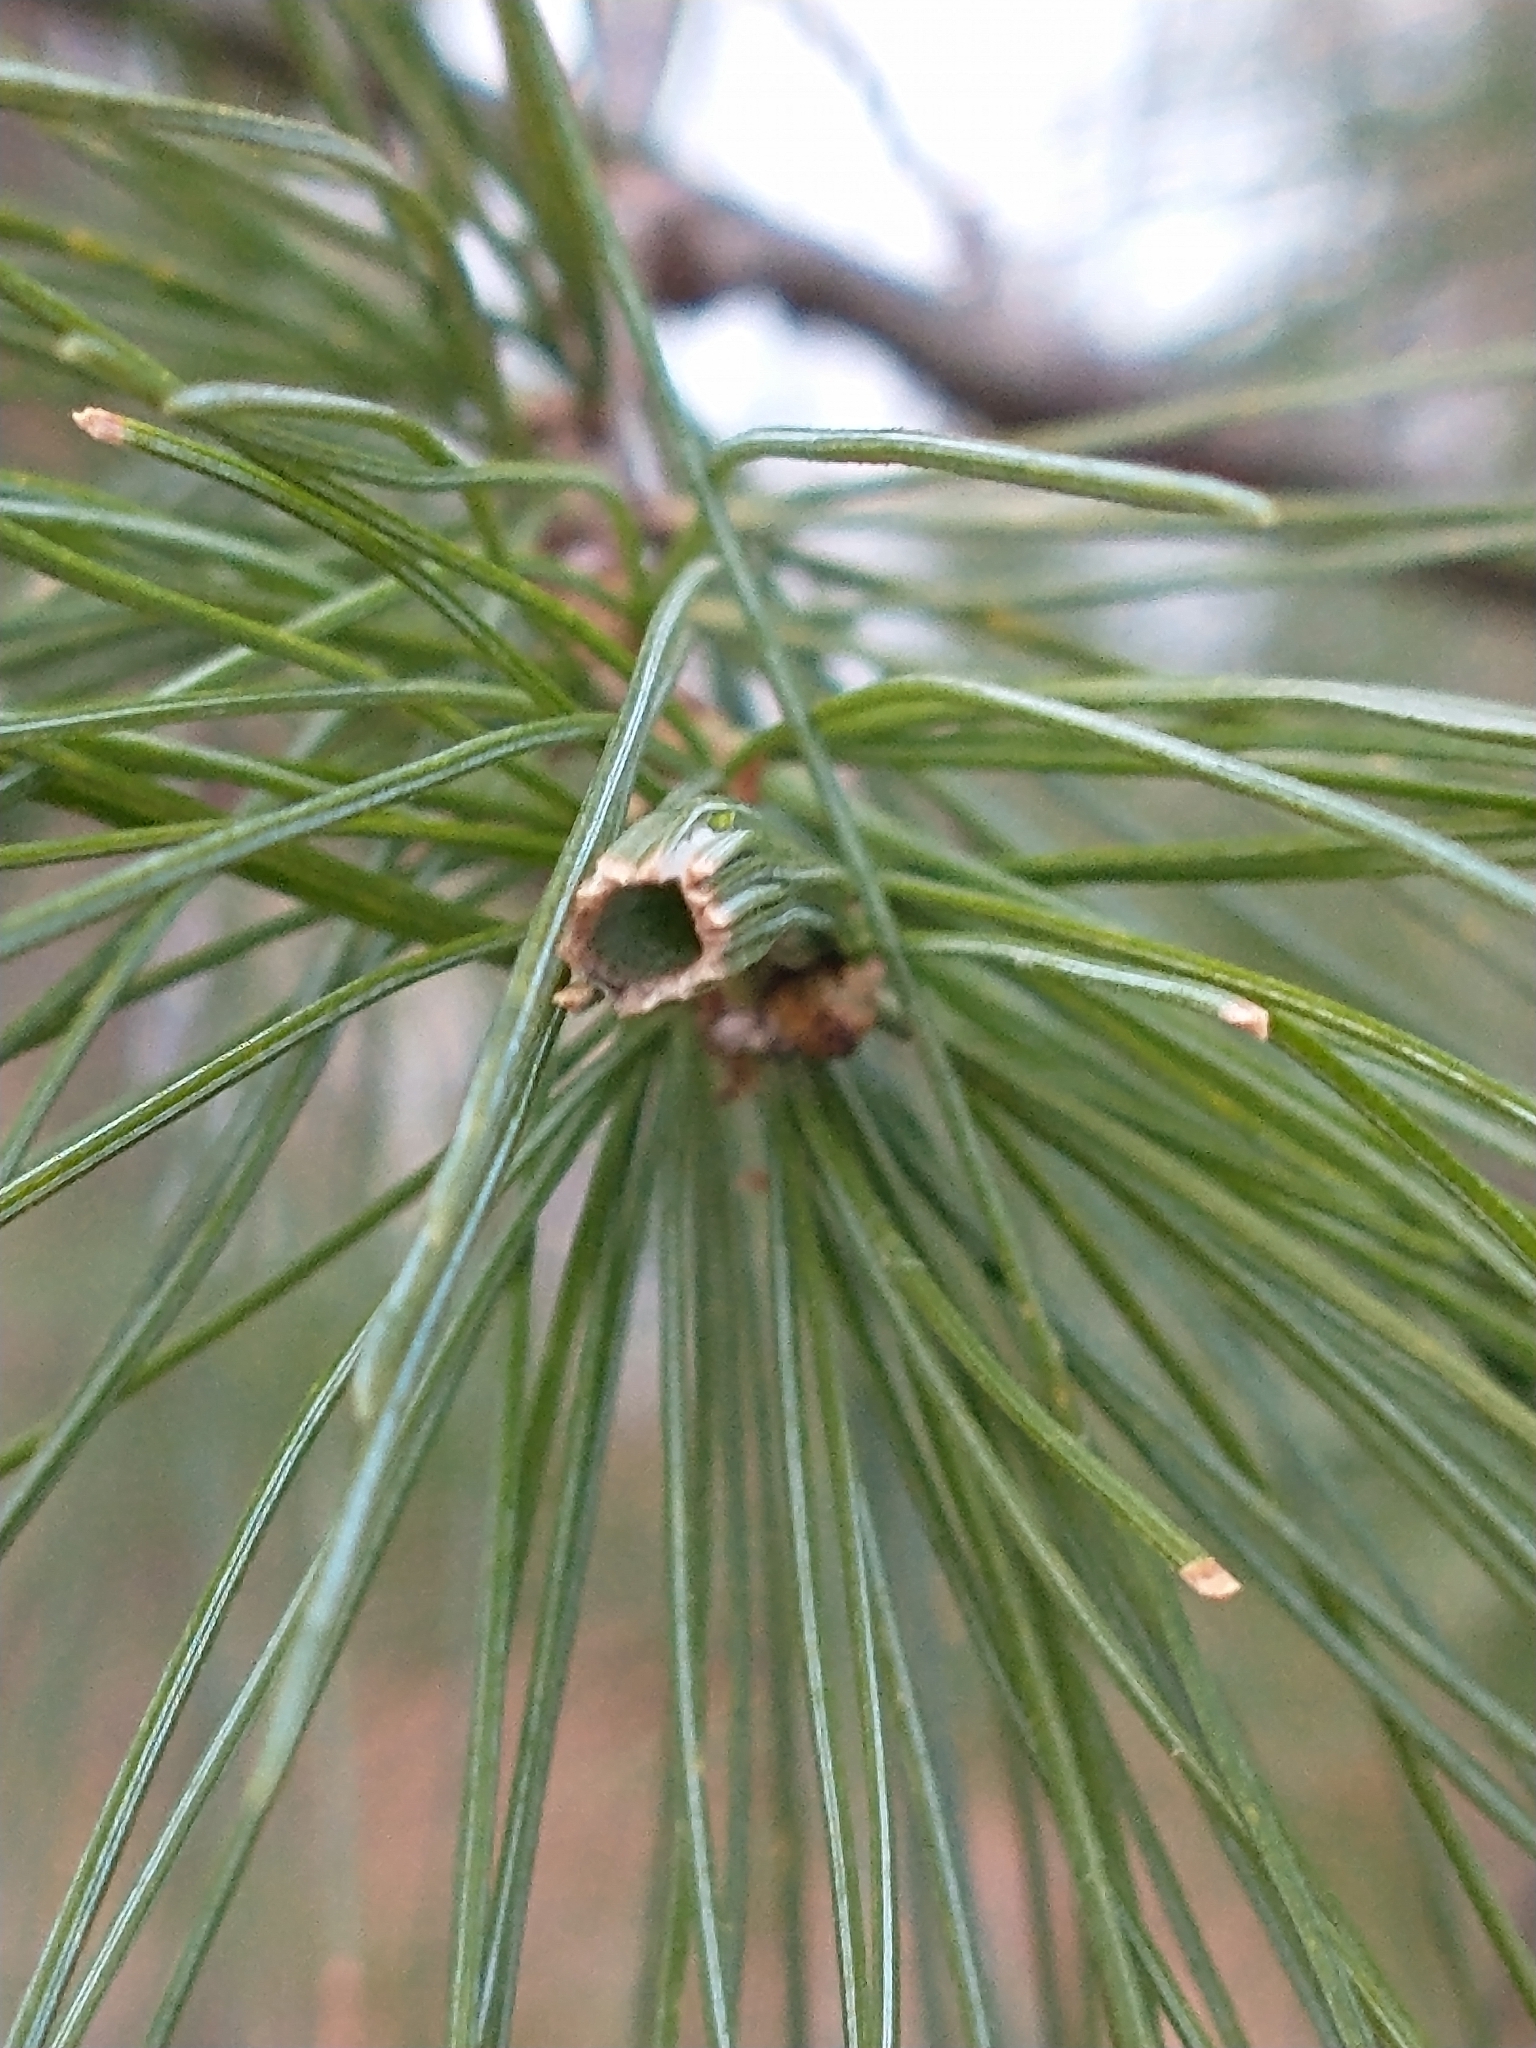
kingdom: Animalia
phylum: Arthropoda
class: Insecta
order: Lepidoptera
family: Tortricidae
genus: Argyrotaenia
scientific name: Argyrotaenia pinatubana
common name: Pine tube moth
